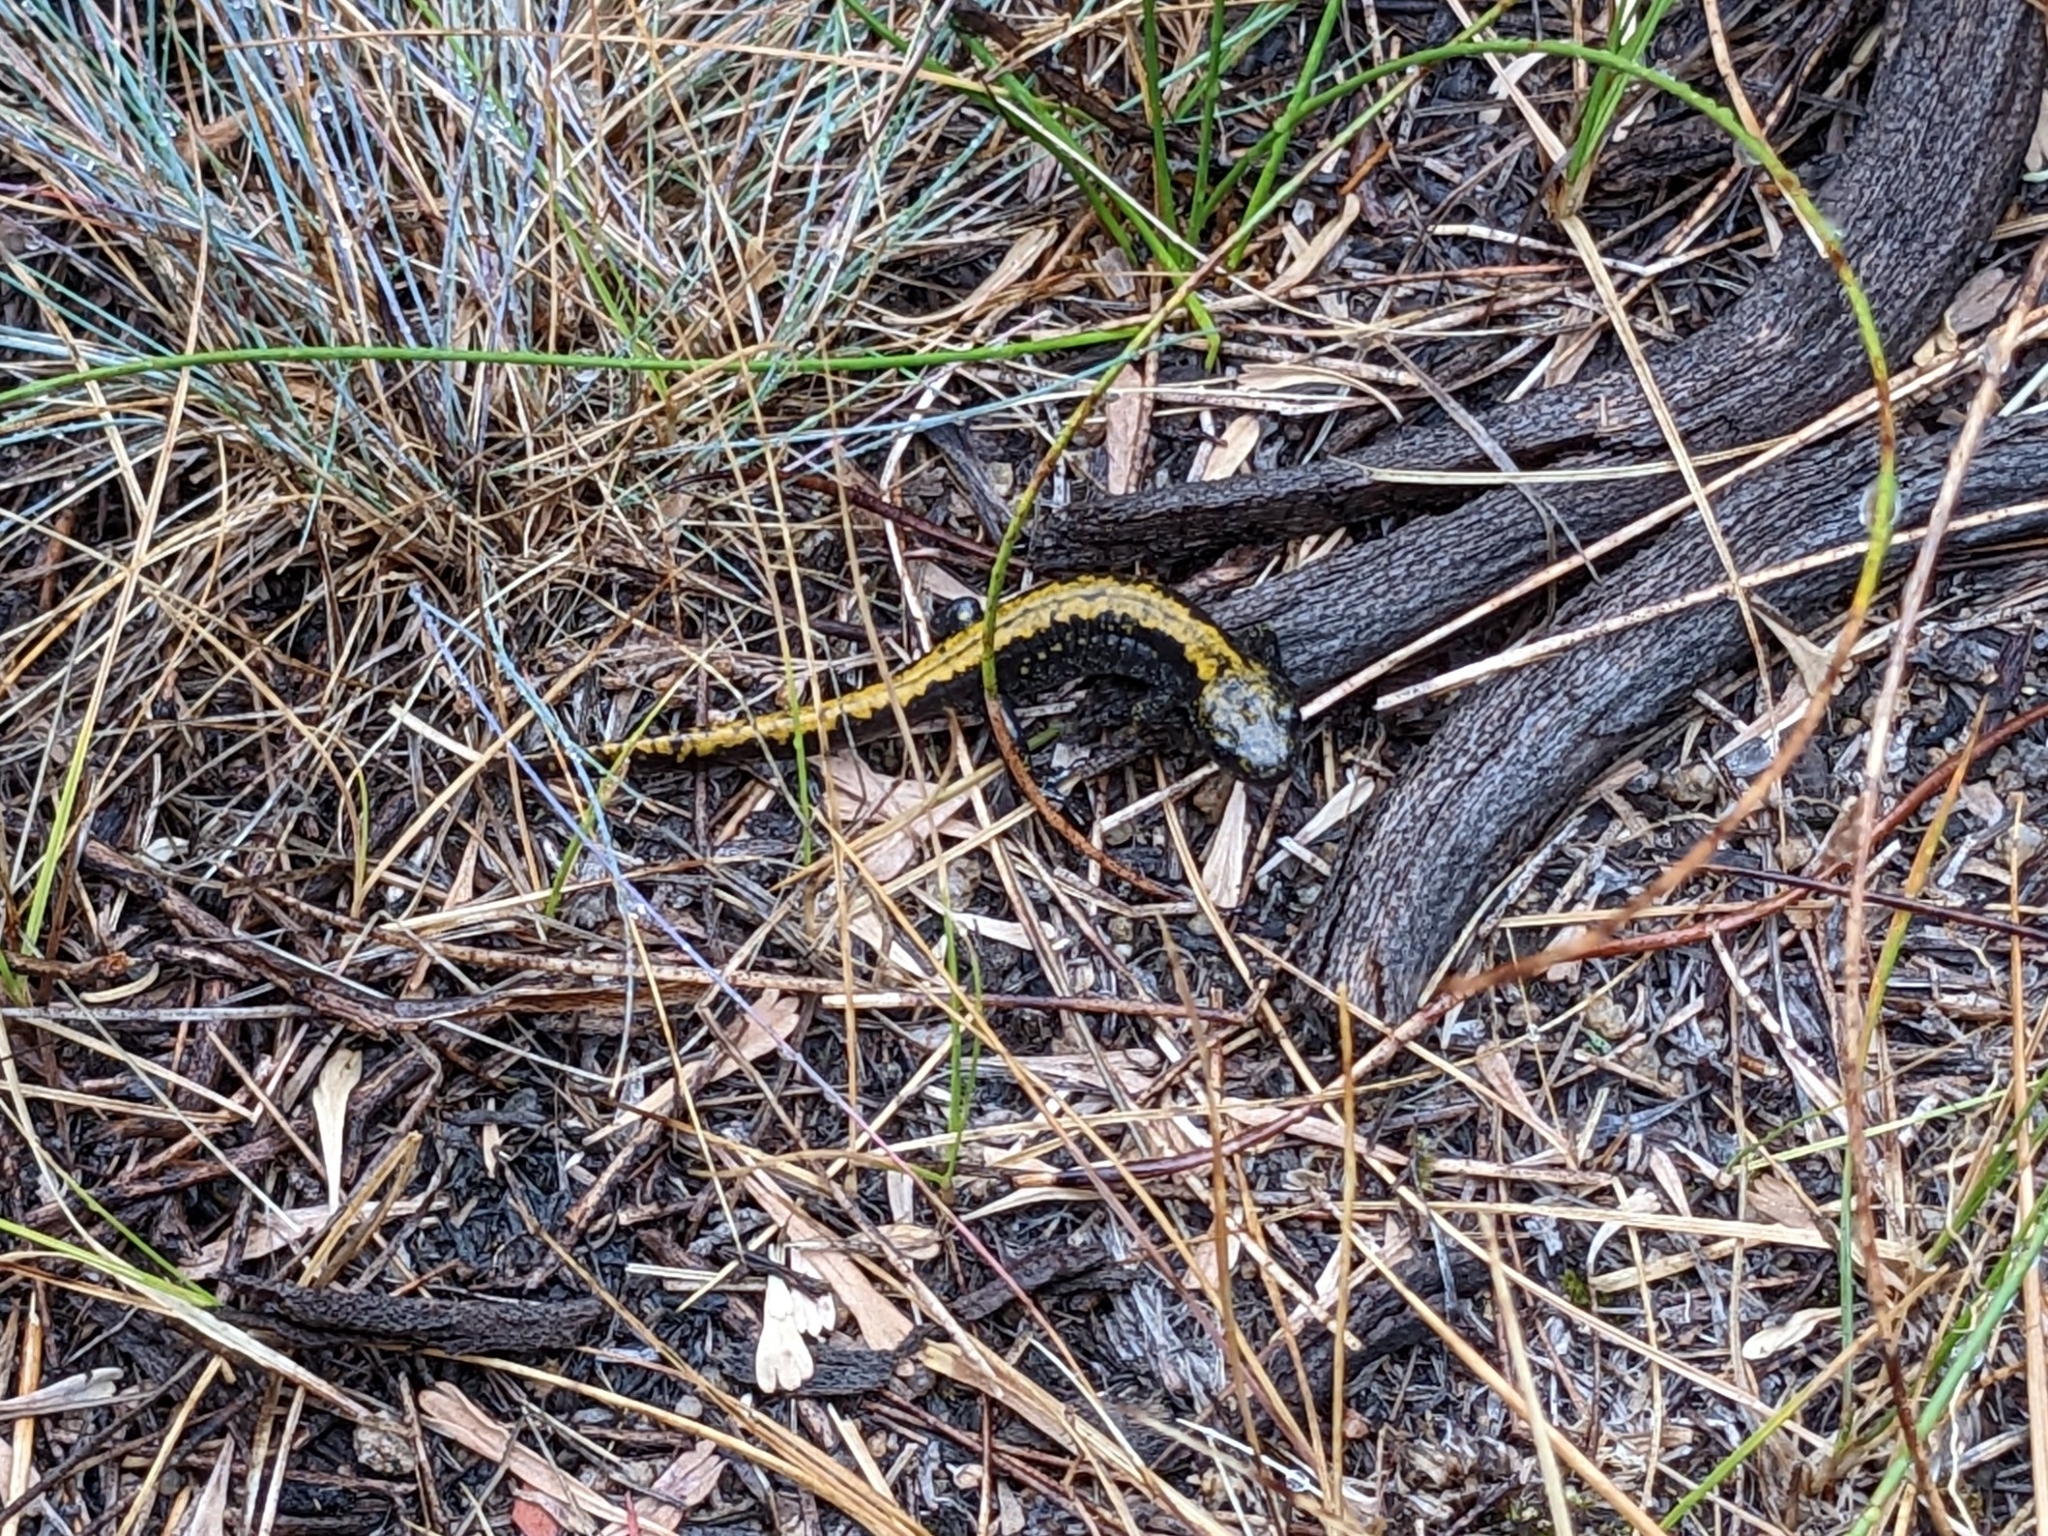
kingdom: Animalia
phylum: Chordata
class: Amphibia
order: Caudata
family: Ambystomatidae
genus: Ambystoma
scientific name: Ambystoma macrodactylum
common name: Long-toed salamander
